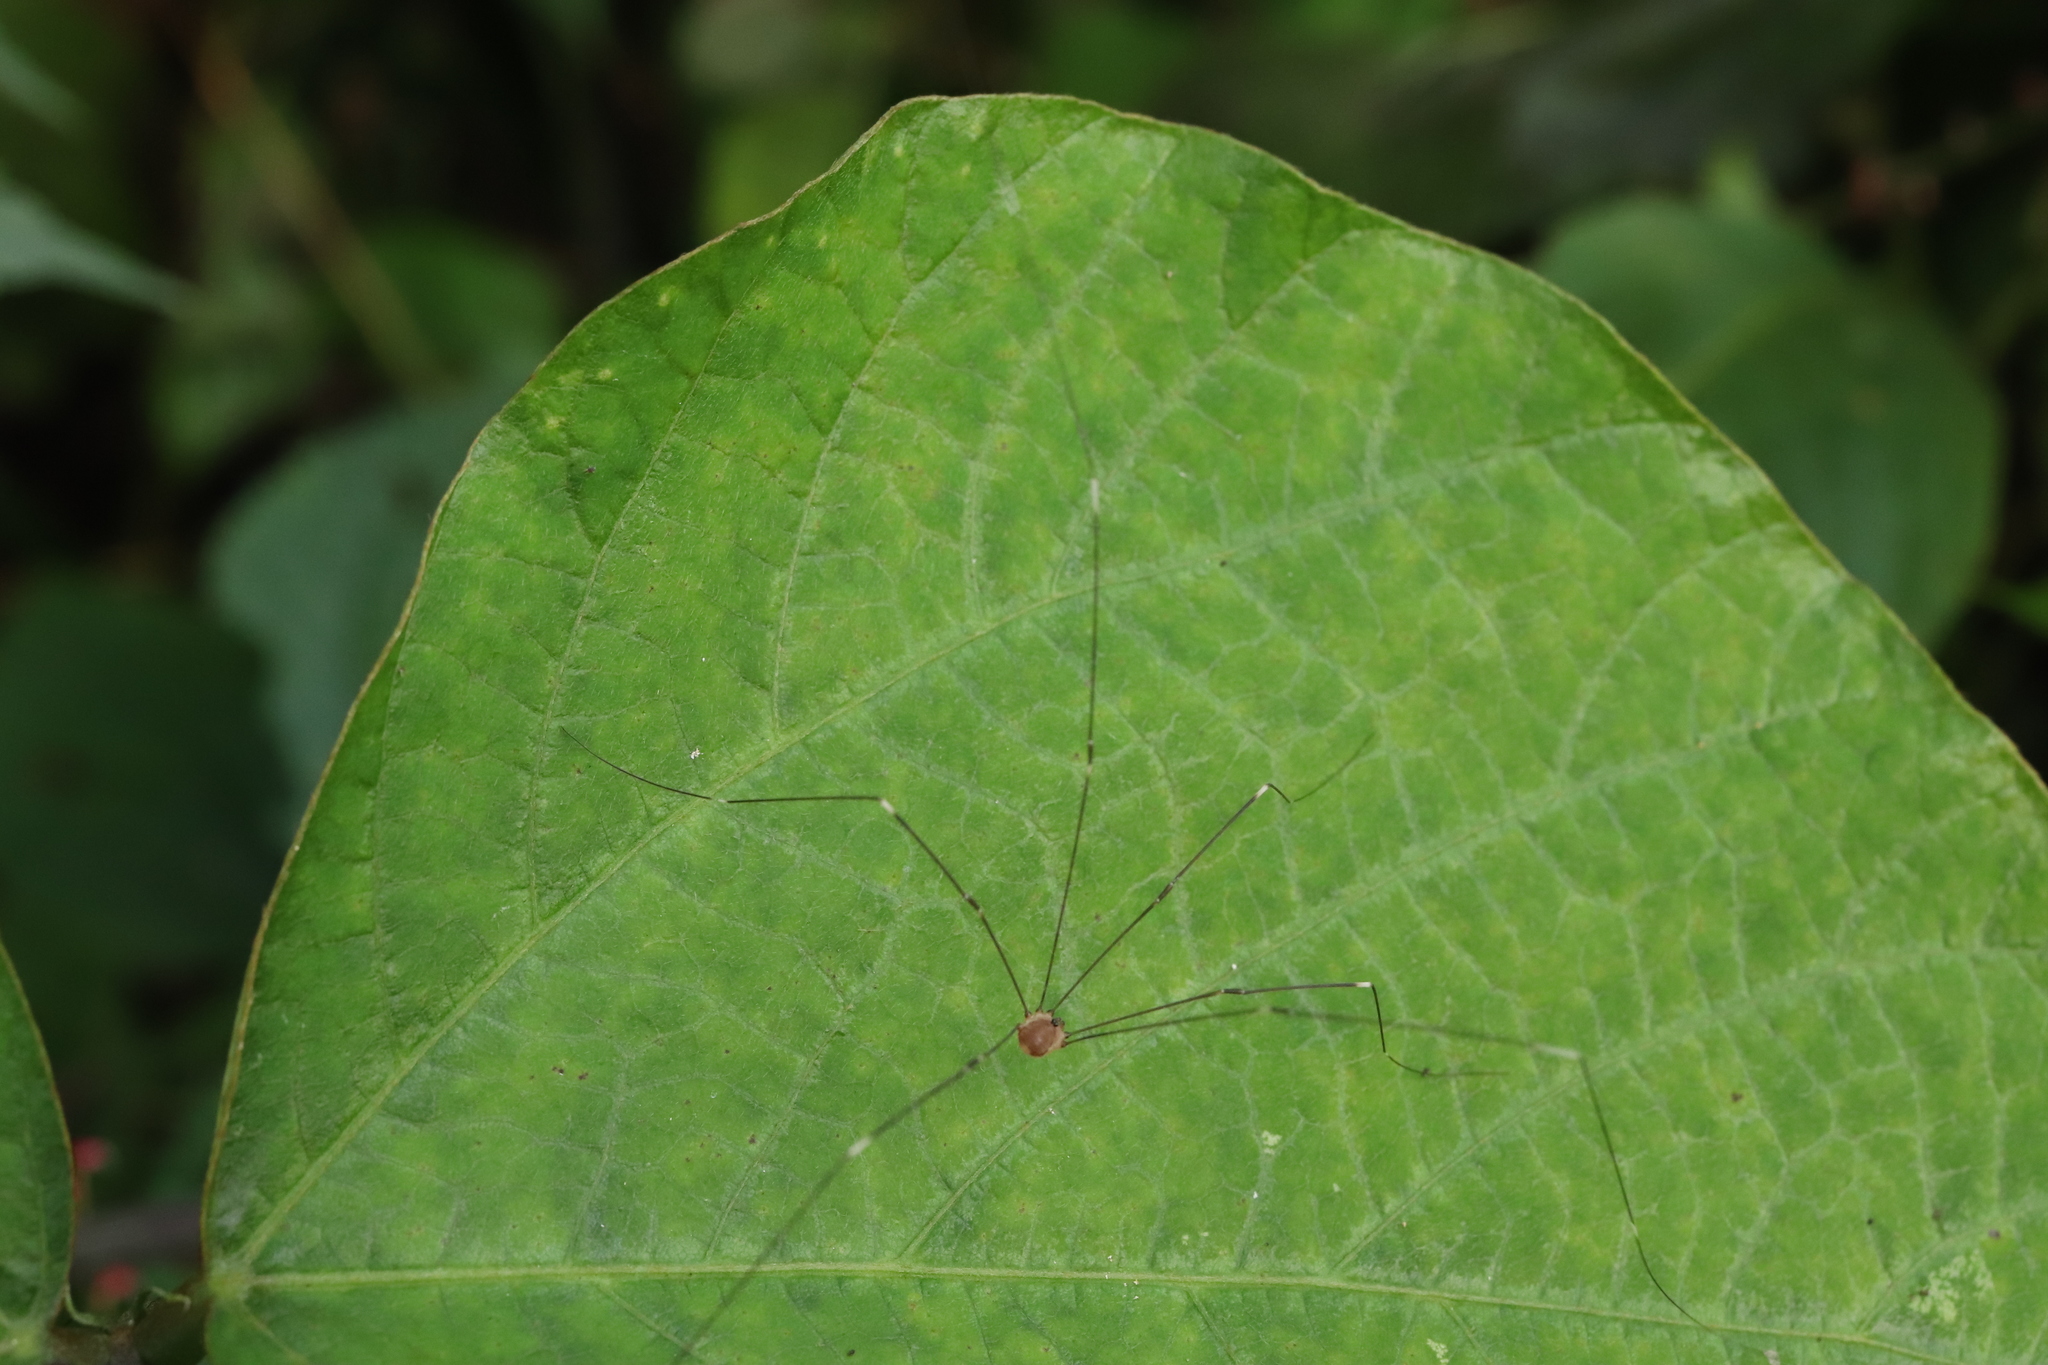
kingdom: Animalia
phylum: Arthropoda
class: Arachnida
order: Opiliones
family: Sclerosomatidae
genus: Leiobunum
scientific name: Leiobunum japonicum
